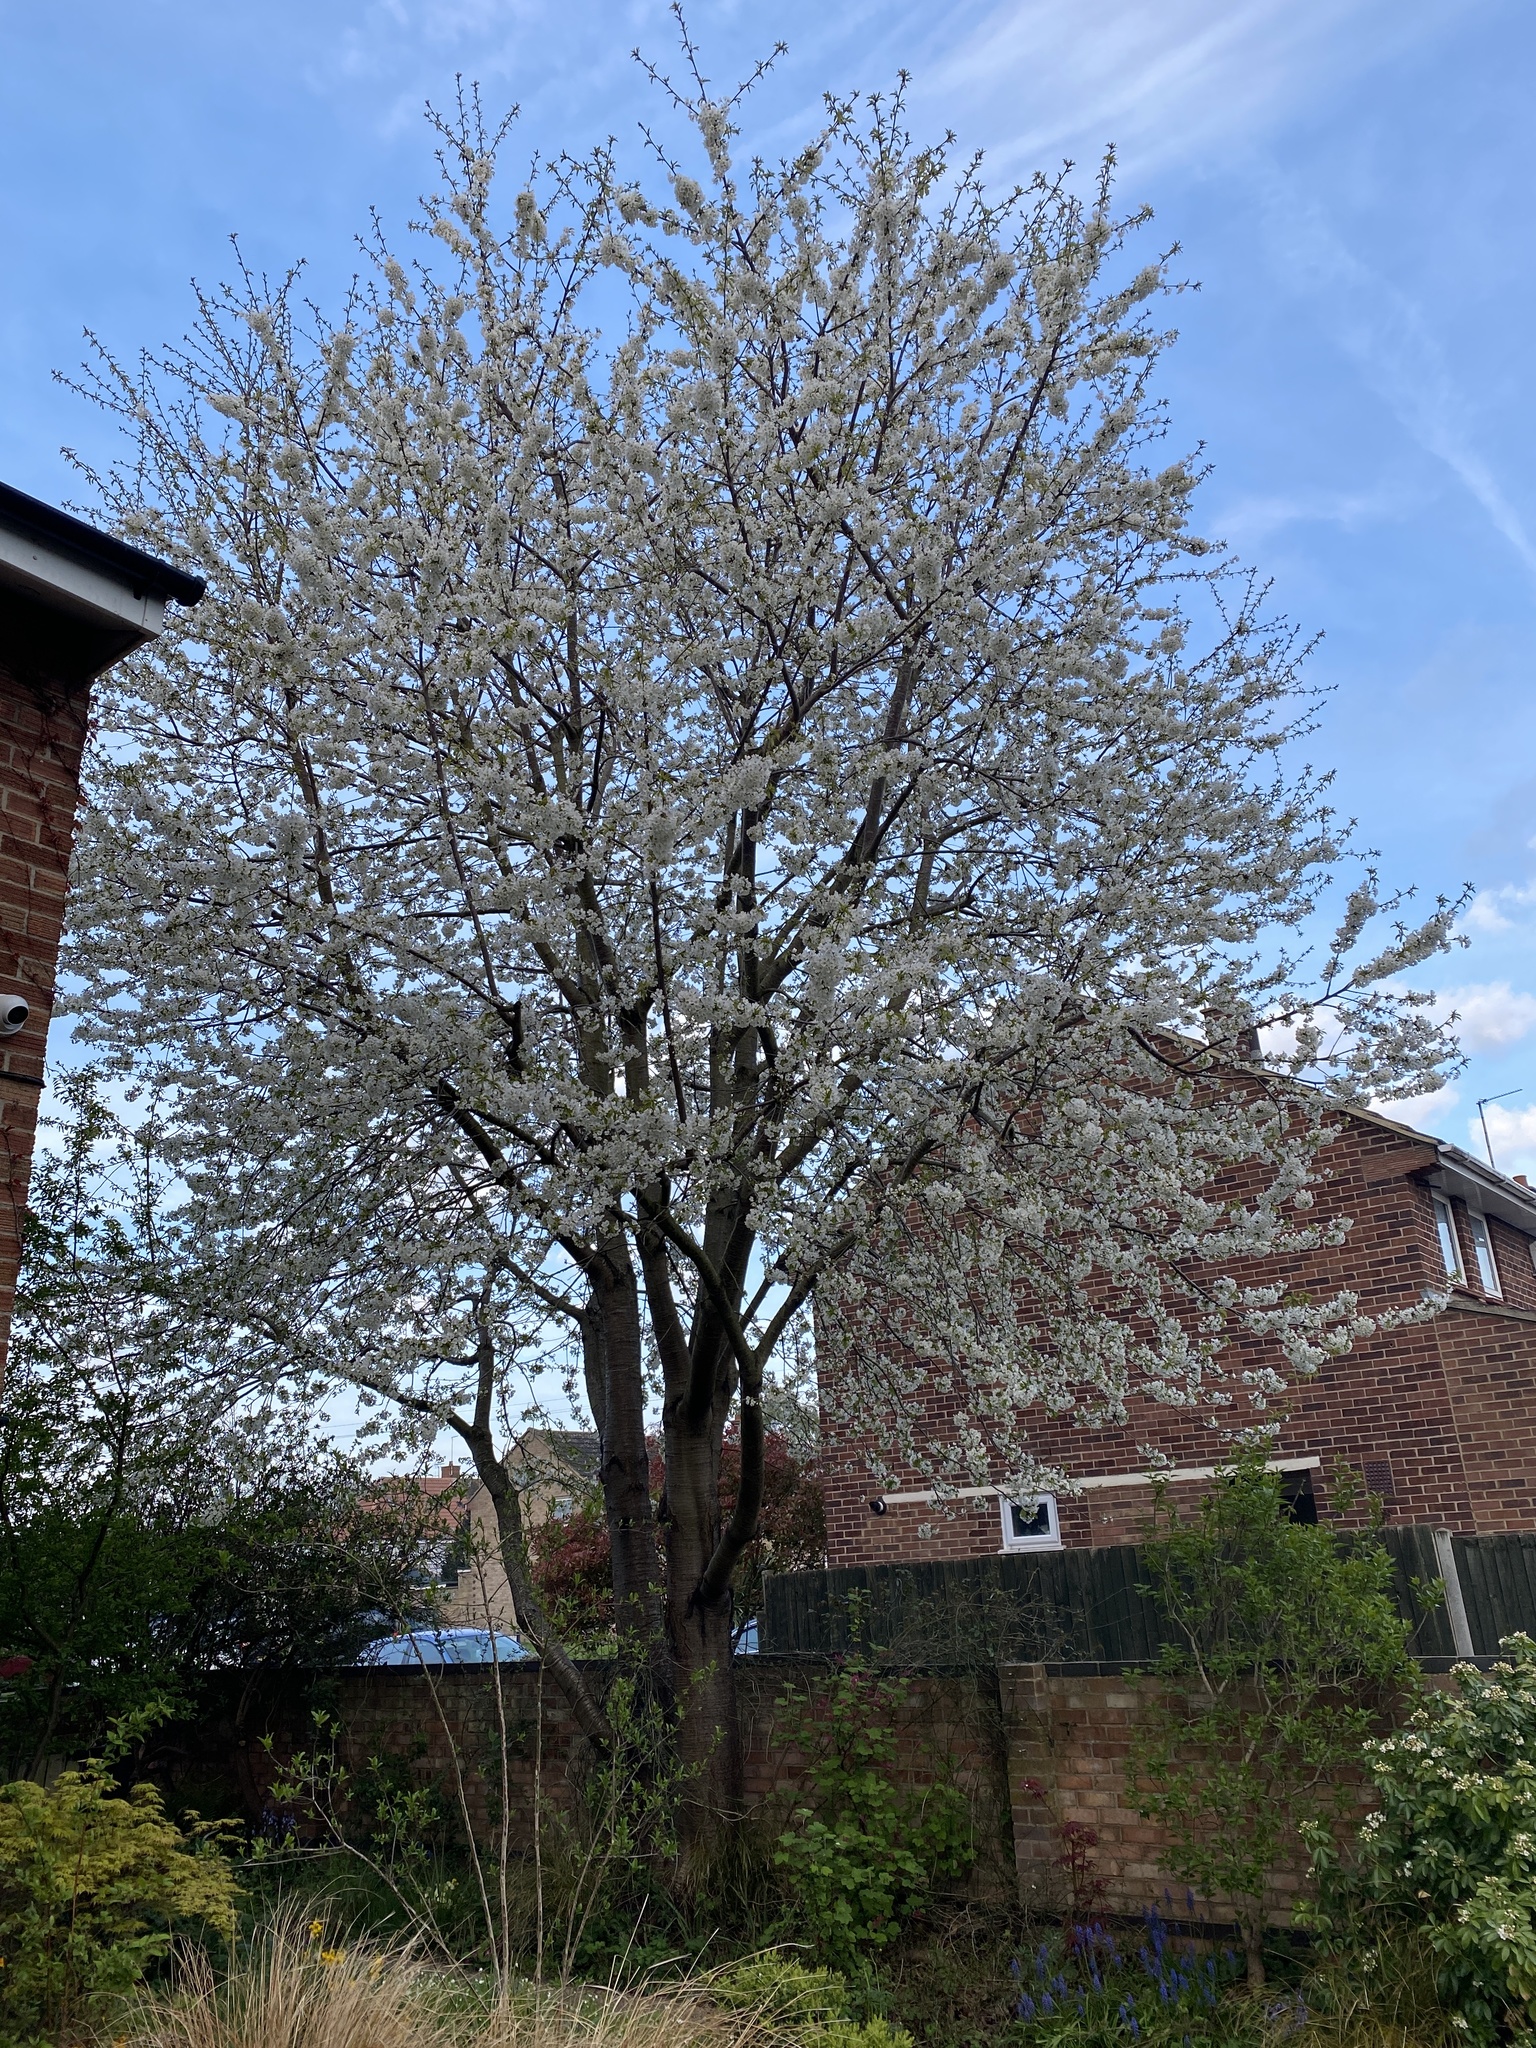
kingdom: Plantae
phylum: Tracheophyta
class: Magnoliopsida
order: Rosales
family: Rosaceae
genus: Prunus
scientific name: Prunus avium
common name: Sweet cherry
